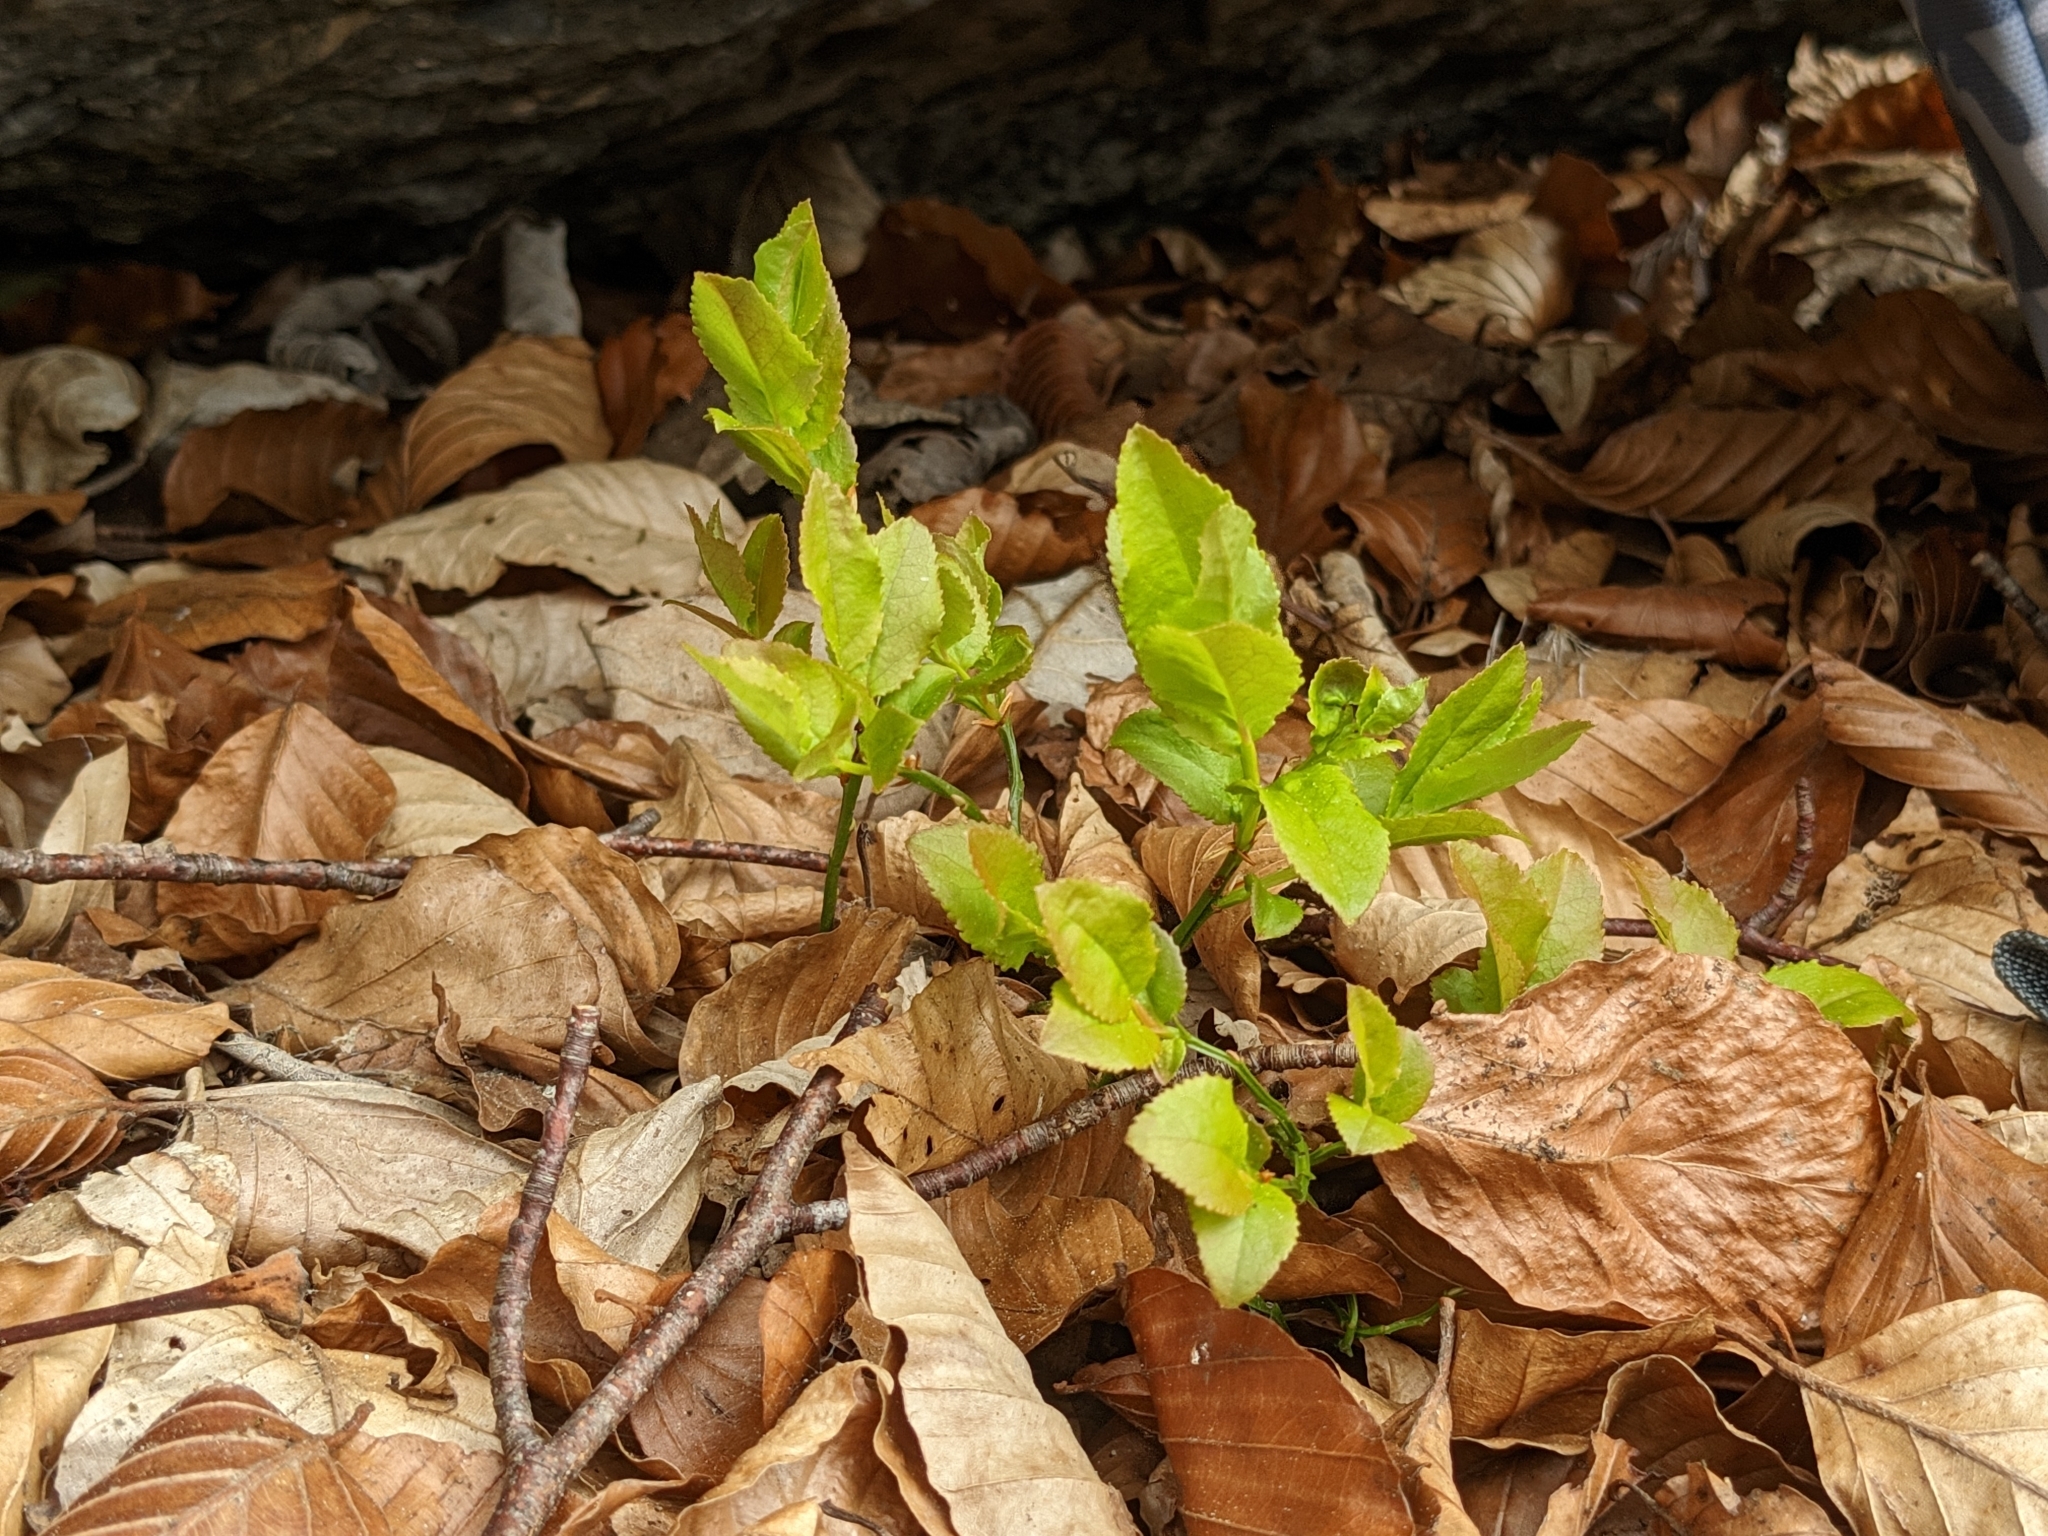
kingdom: Plantae
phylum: Tracheophyta
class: Magnoliopsida
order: Ericales
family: Ericaceae
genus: Vaccinium
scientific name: Vaccinium myrtillus
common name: Bilberry
